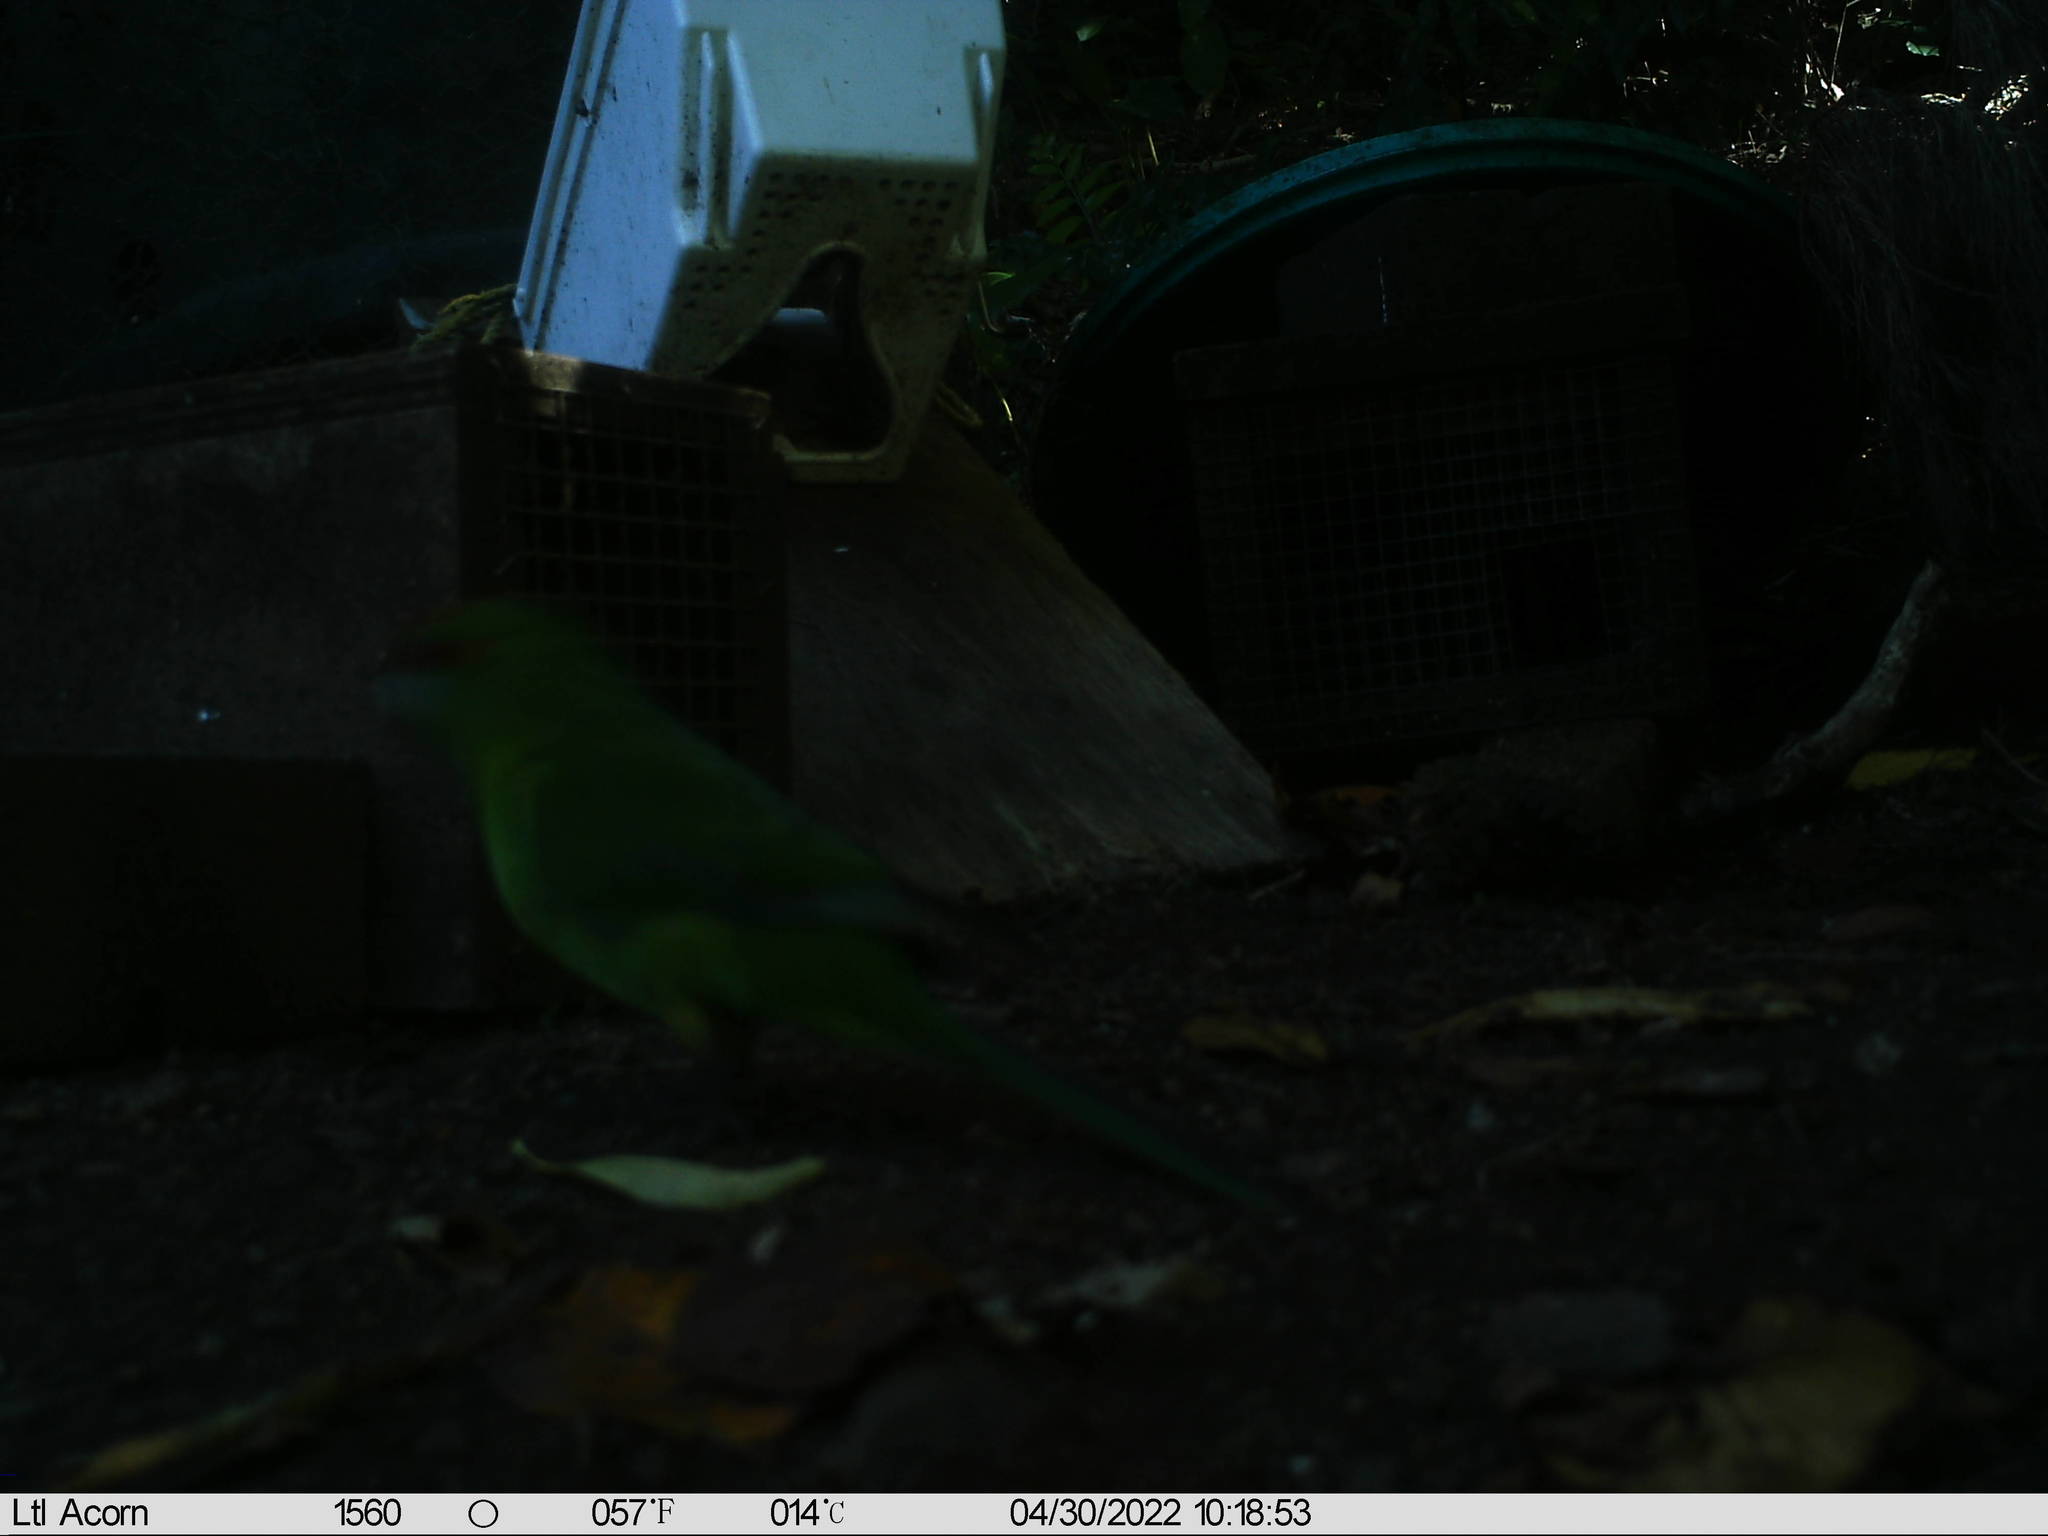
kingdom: Animalia
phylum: Chordata
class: Aves
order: Psittaciformes
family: Psittacidae
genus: Cyanoramphus
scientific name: Cyanoramphus novaezelandiae
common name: Red-fronted parakeet
